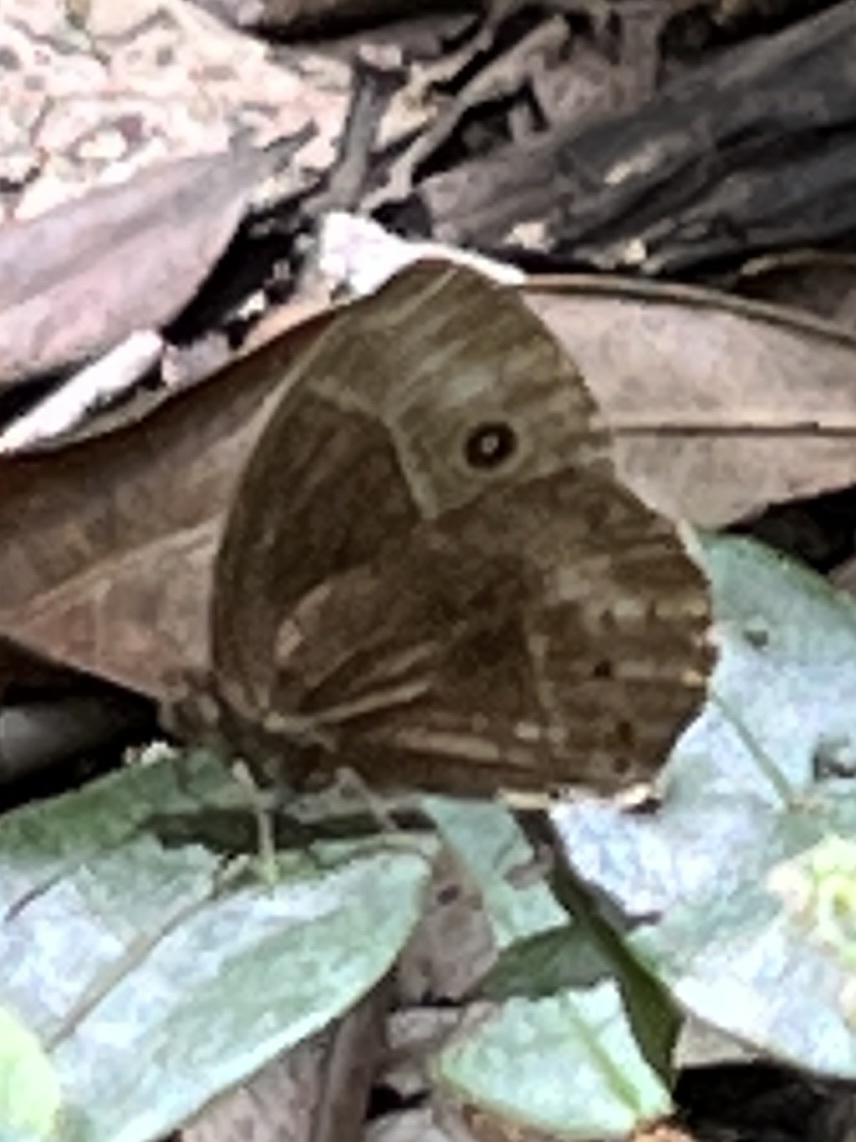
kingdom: Animalia
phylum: Arthropoda
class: Insecta
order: Lepidoptera
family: Nymphalidae
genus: Mycalesis
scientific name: Mycalesis rhacotis
